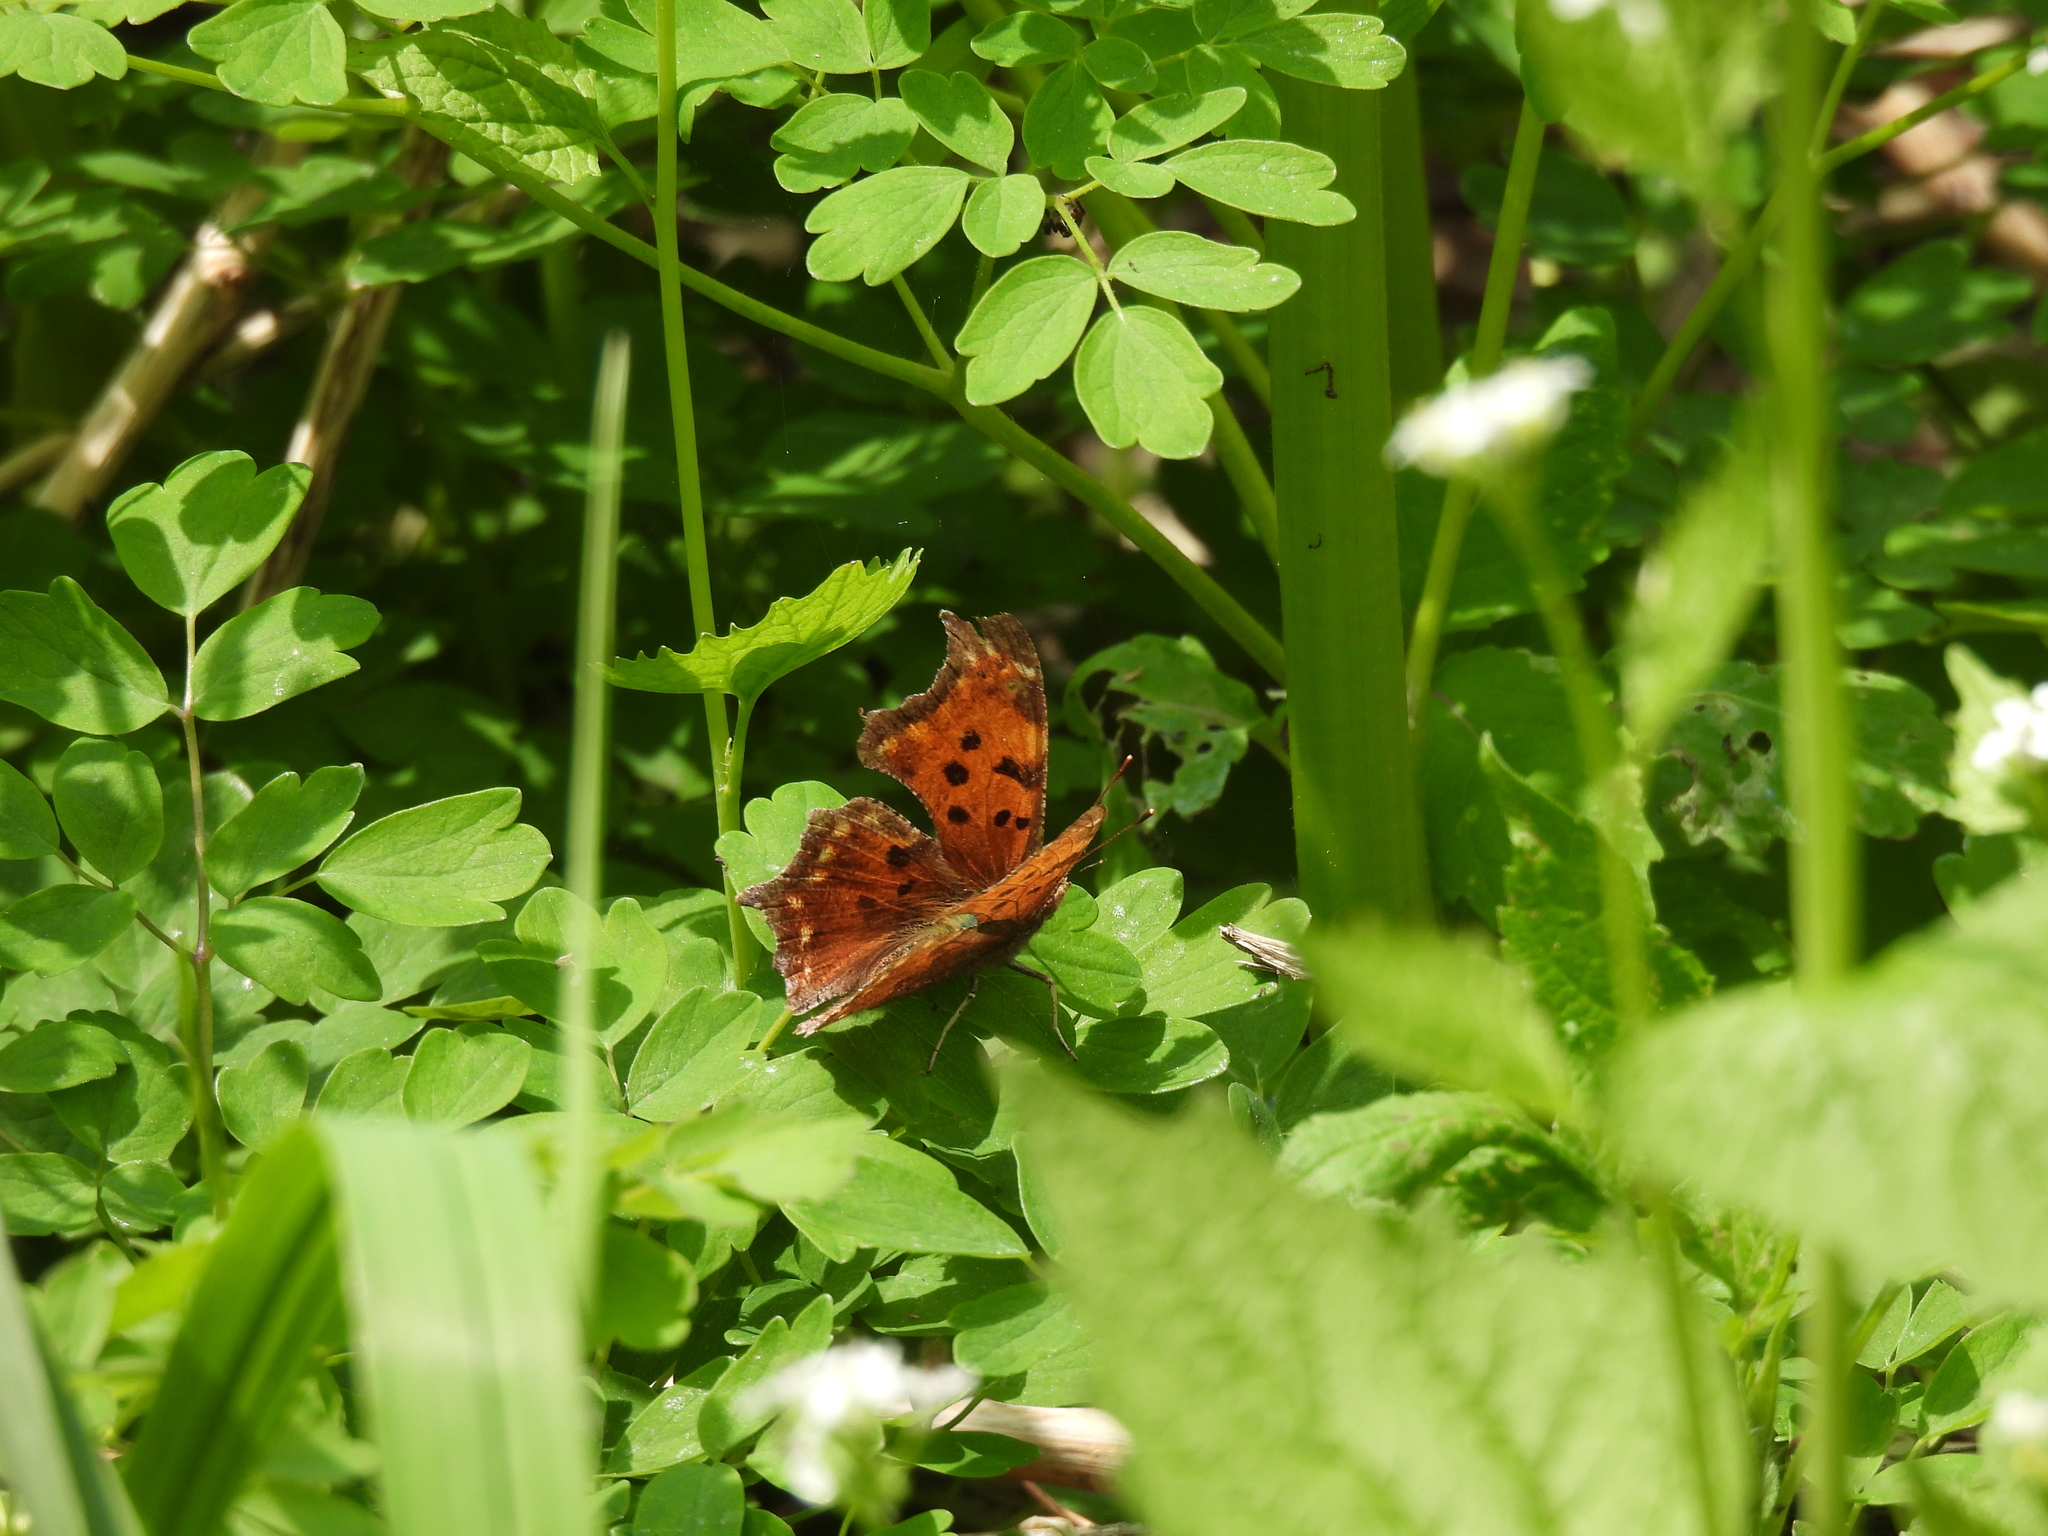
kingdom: Animalia
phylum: Arthropoda
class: Insecta
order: Lepidoptera
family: Nymphalidae
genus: Polygonia
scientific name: Polygonia comma
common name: Eastern comma
